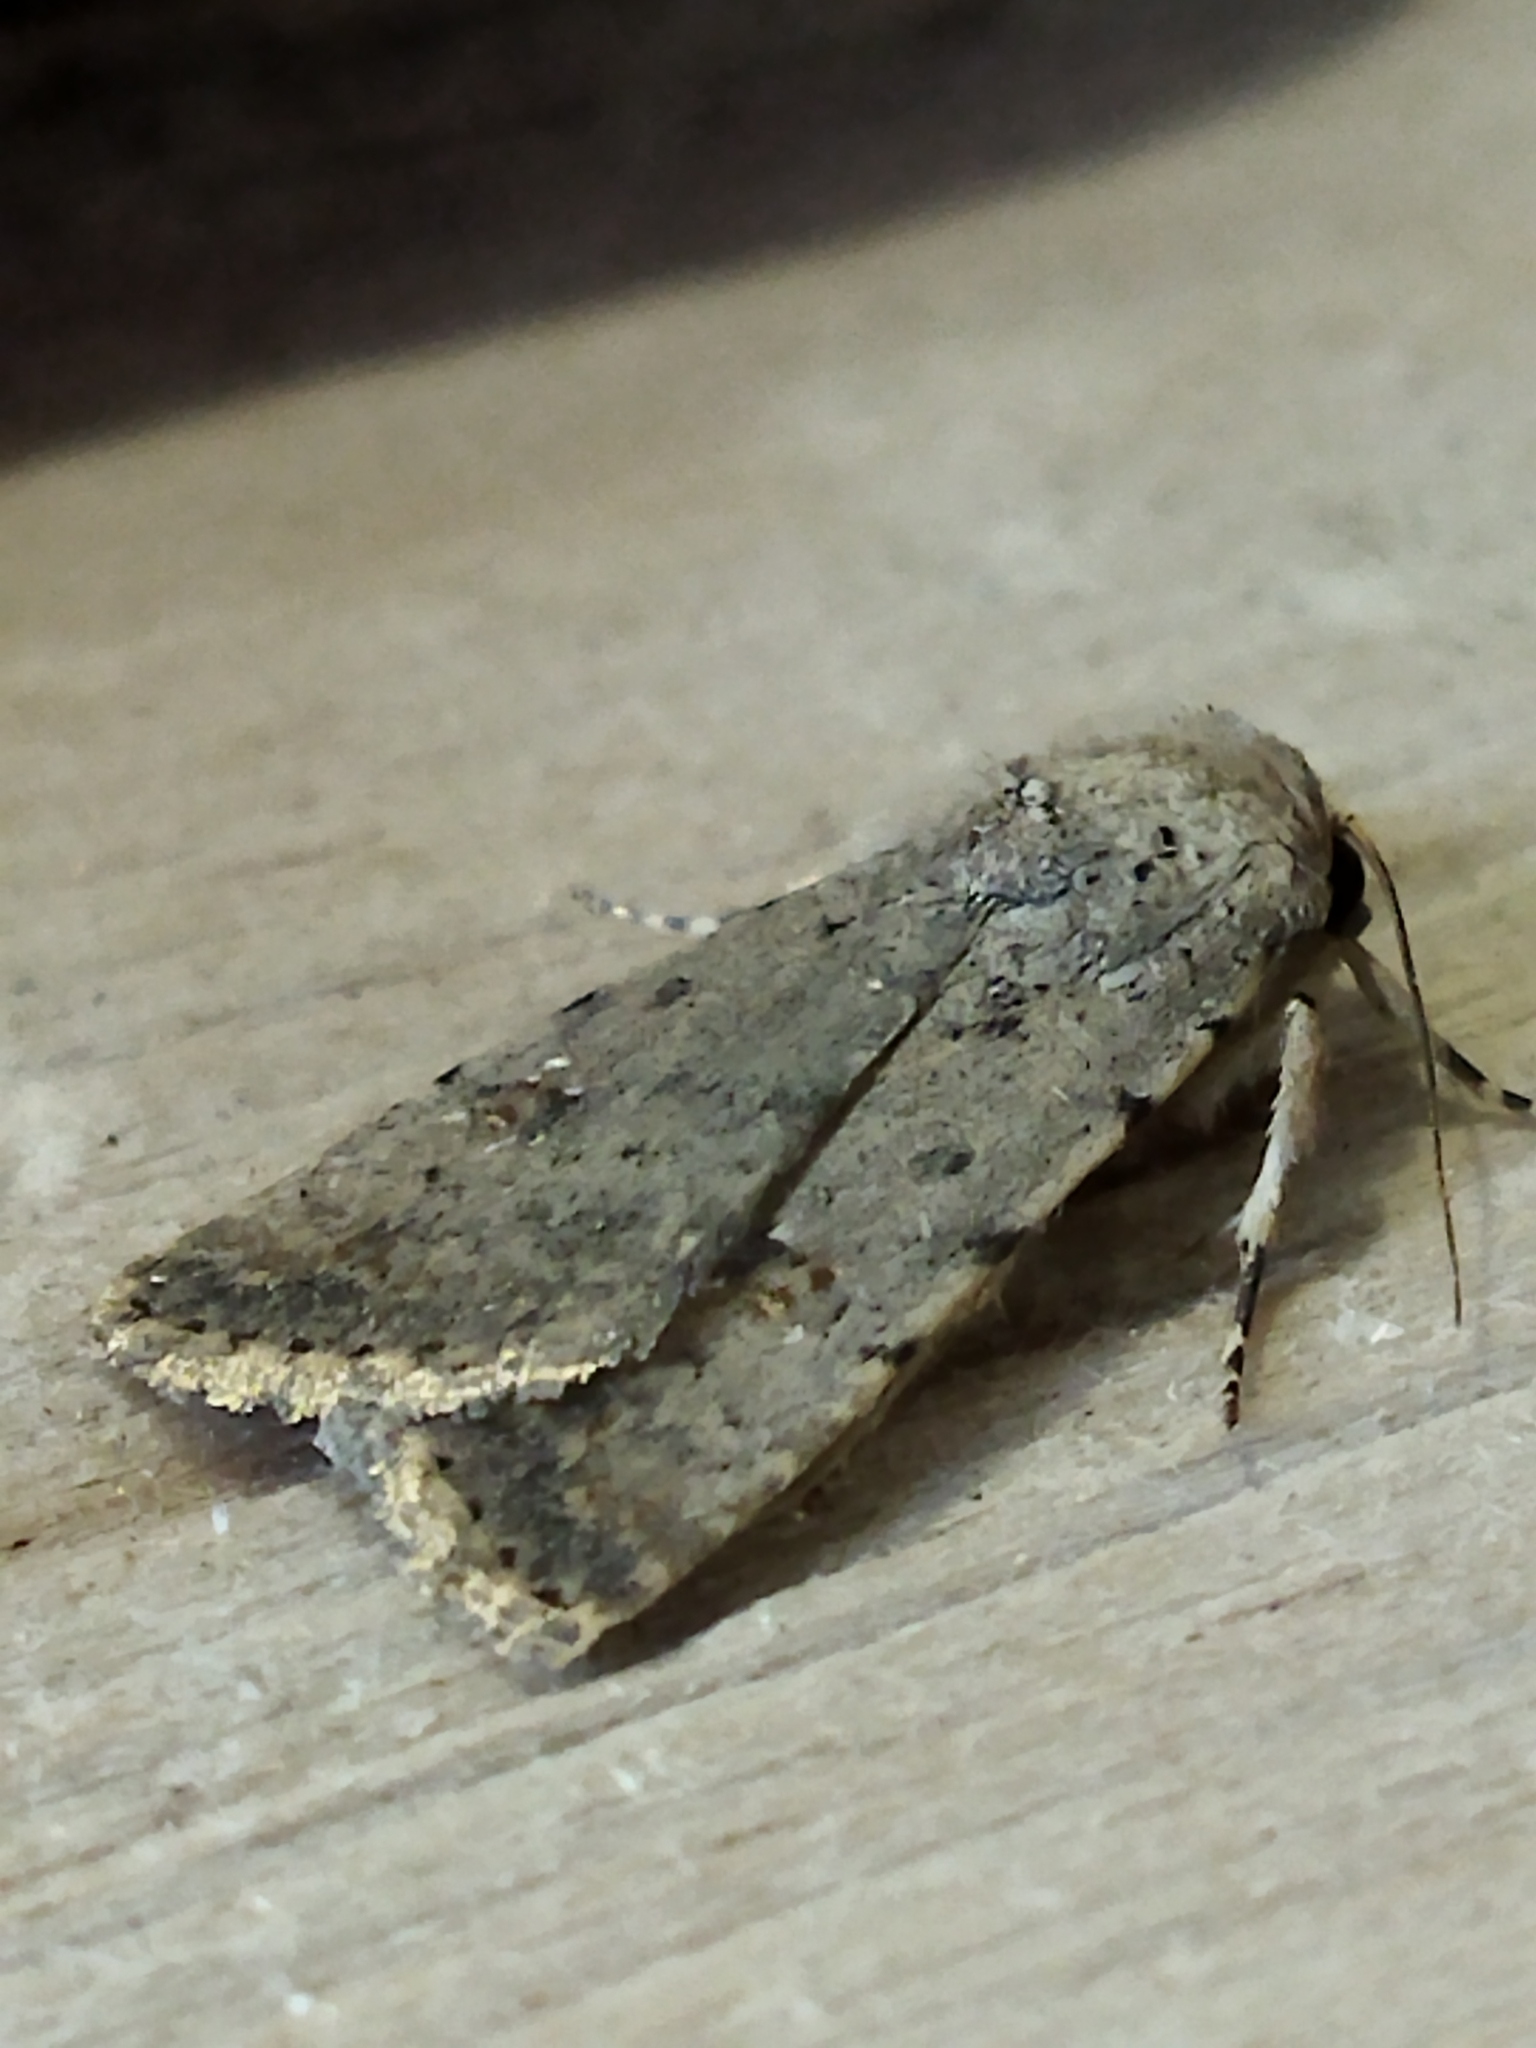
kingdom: Animalia
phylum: Arthropoda
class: Insecta
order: Lepidoptera
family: Noctuidae
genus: Caradrina
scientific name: Caradrina clavipalpis
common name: Pale mottled willow
